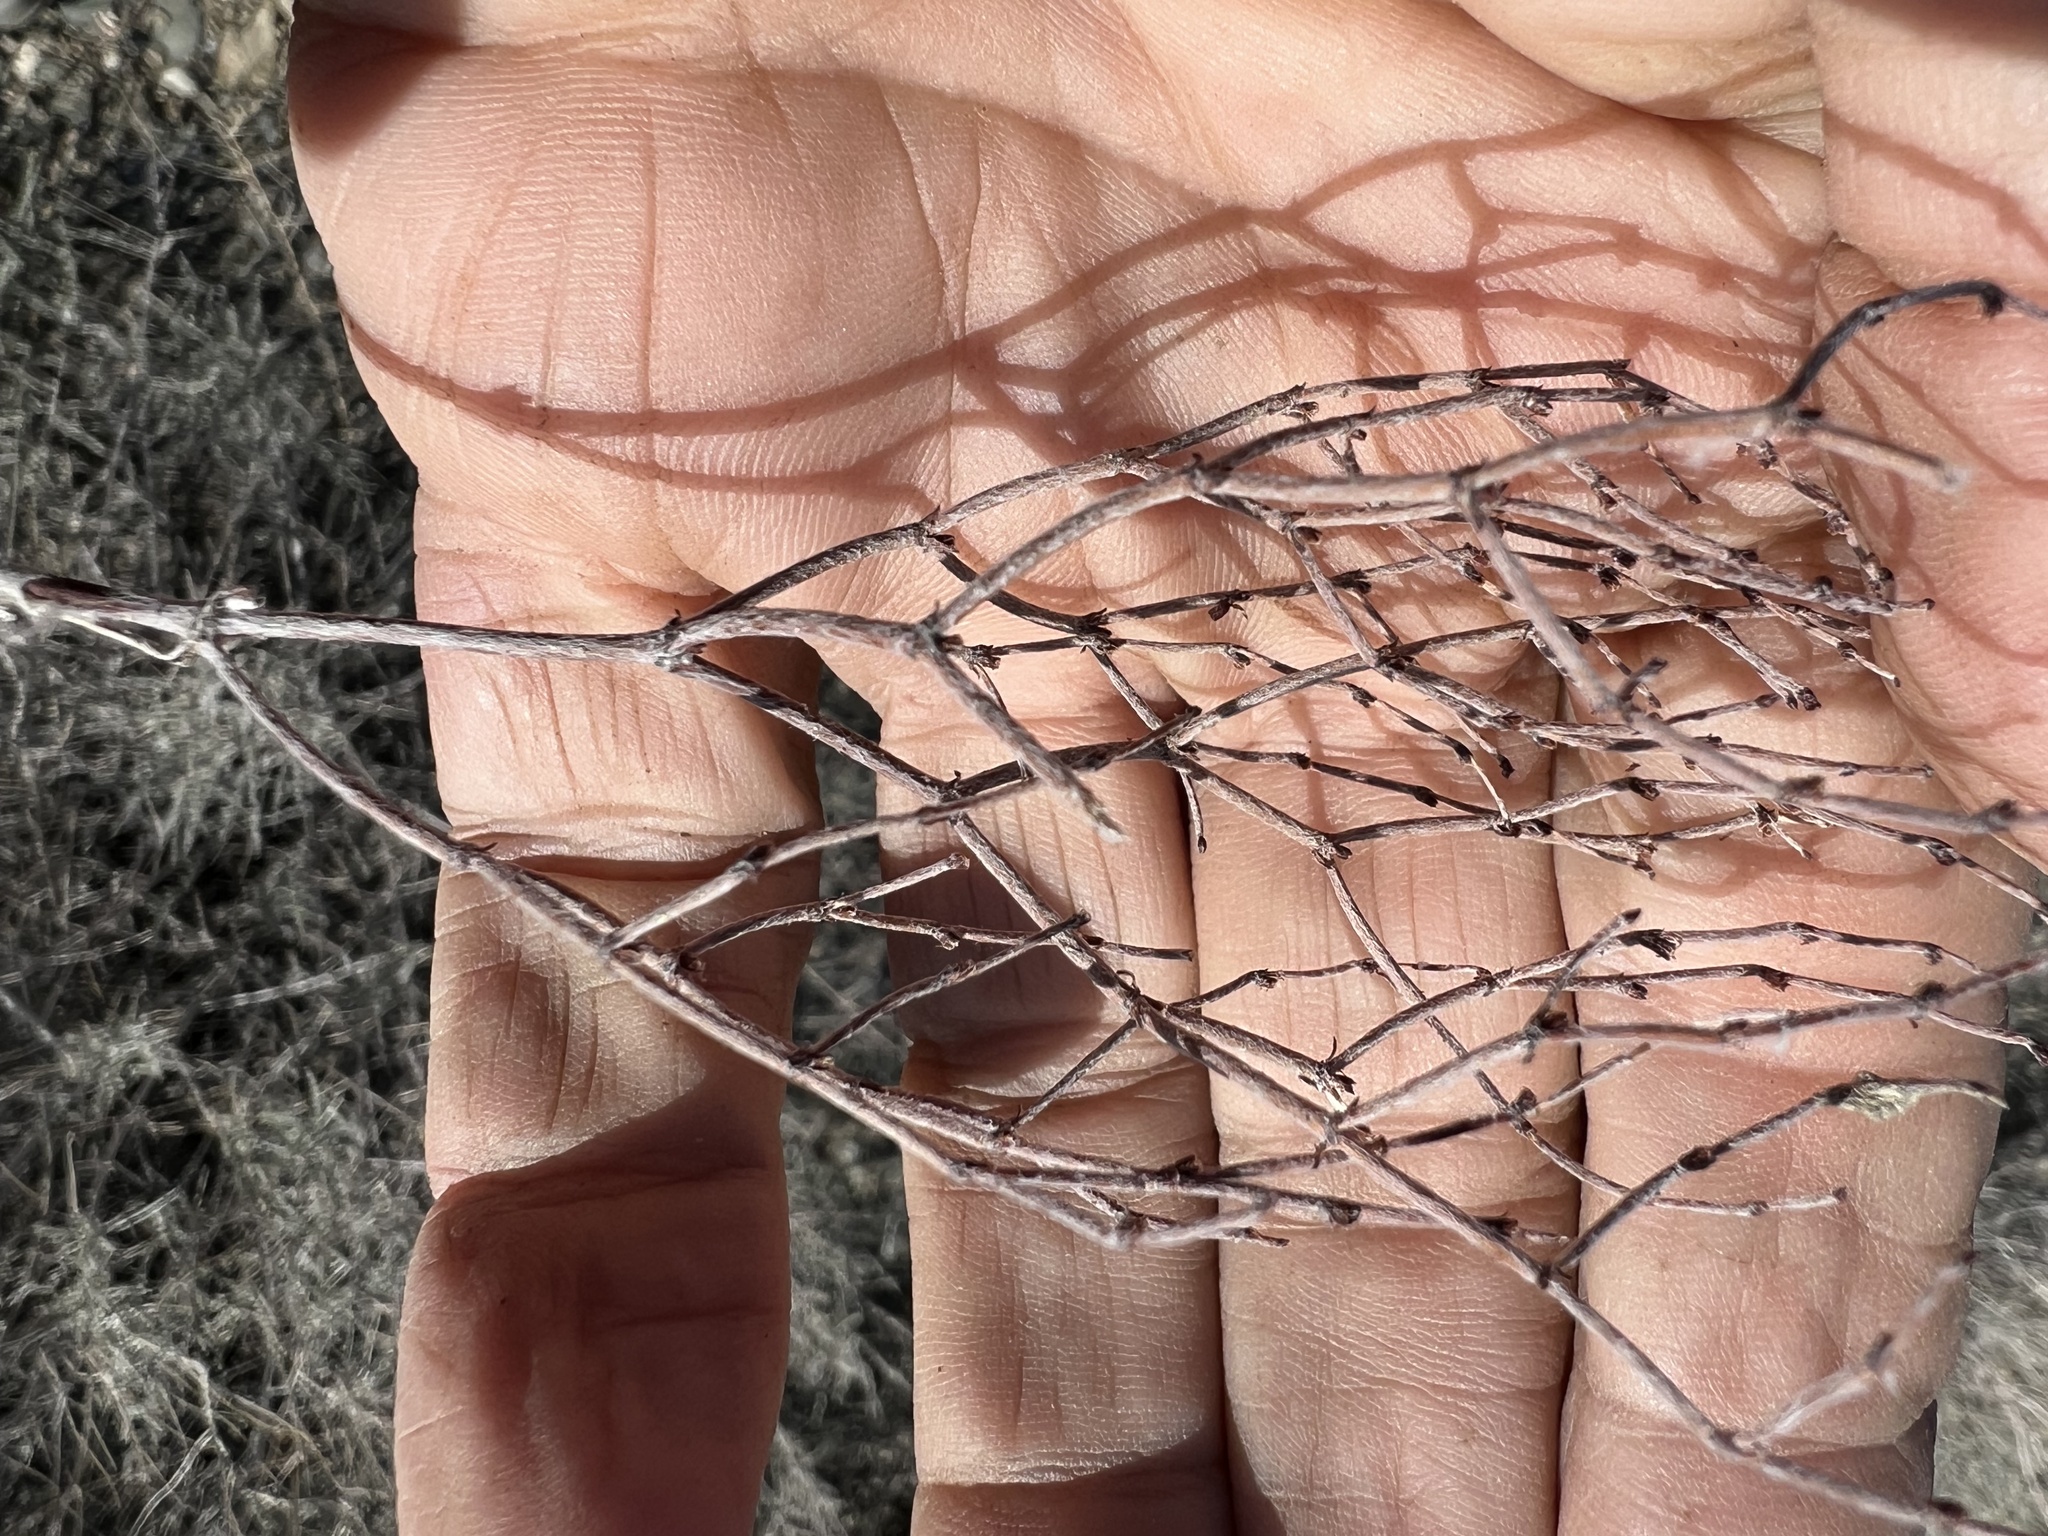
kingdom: Plantae
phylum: Tracheophyta
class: Magnoliopsida
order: Caryophyllales
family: Polygonaceae
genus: Eriogonum
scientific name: Eriogonum nidularium
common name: Bird's-nest wild buckwheat
